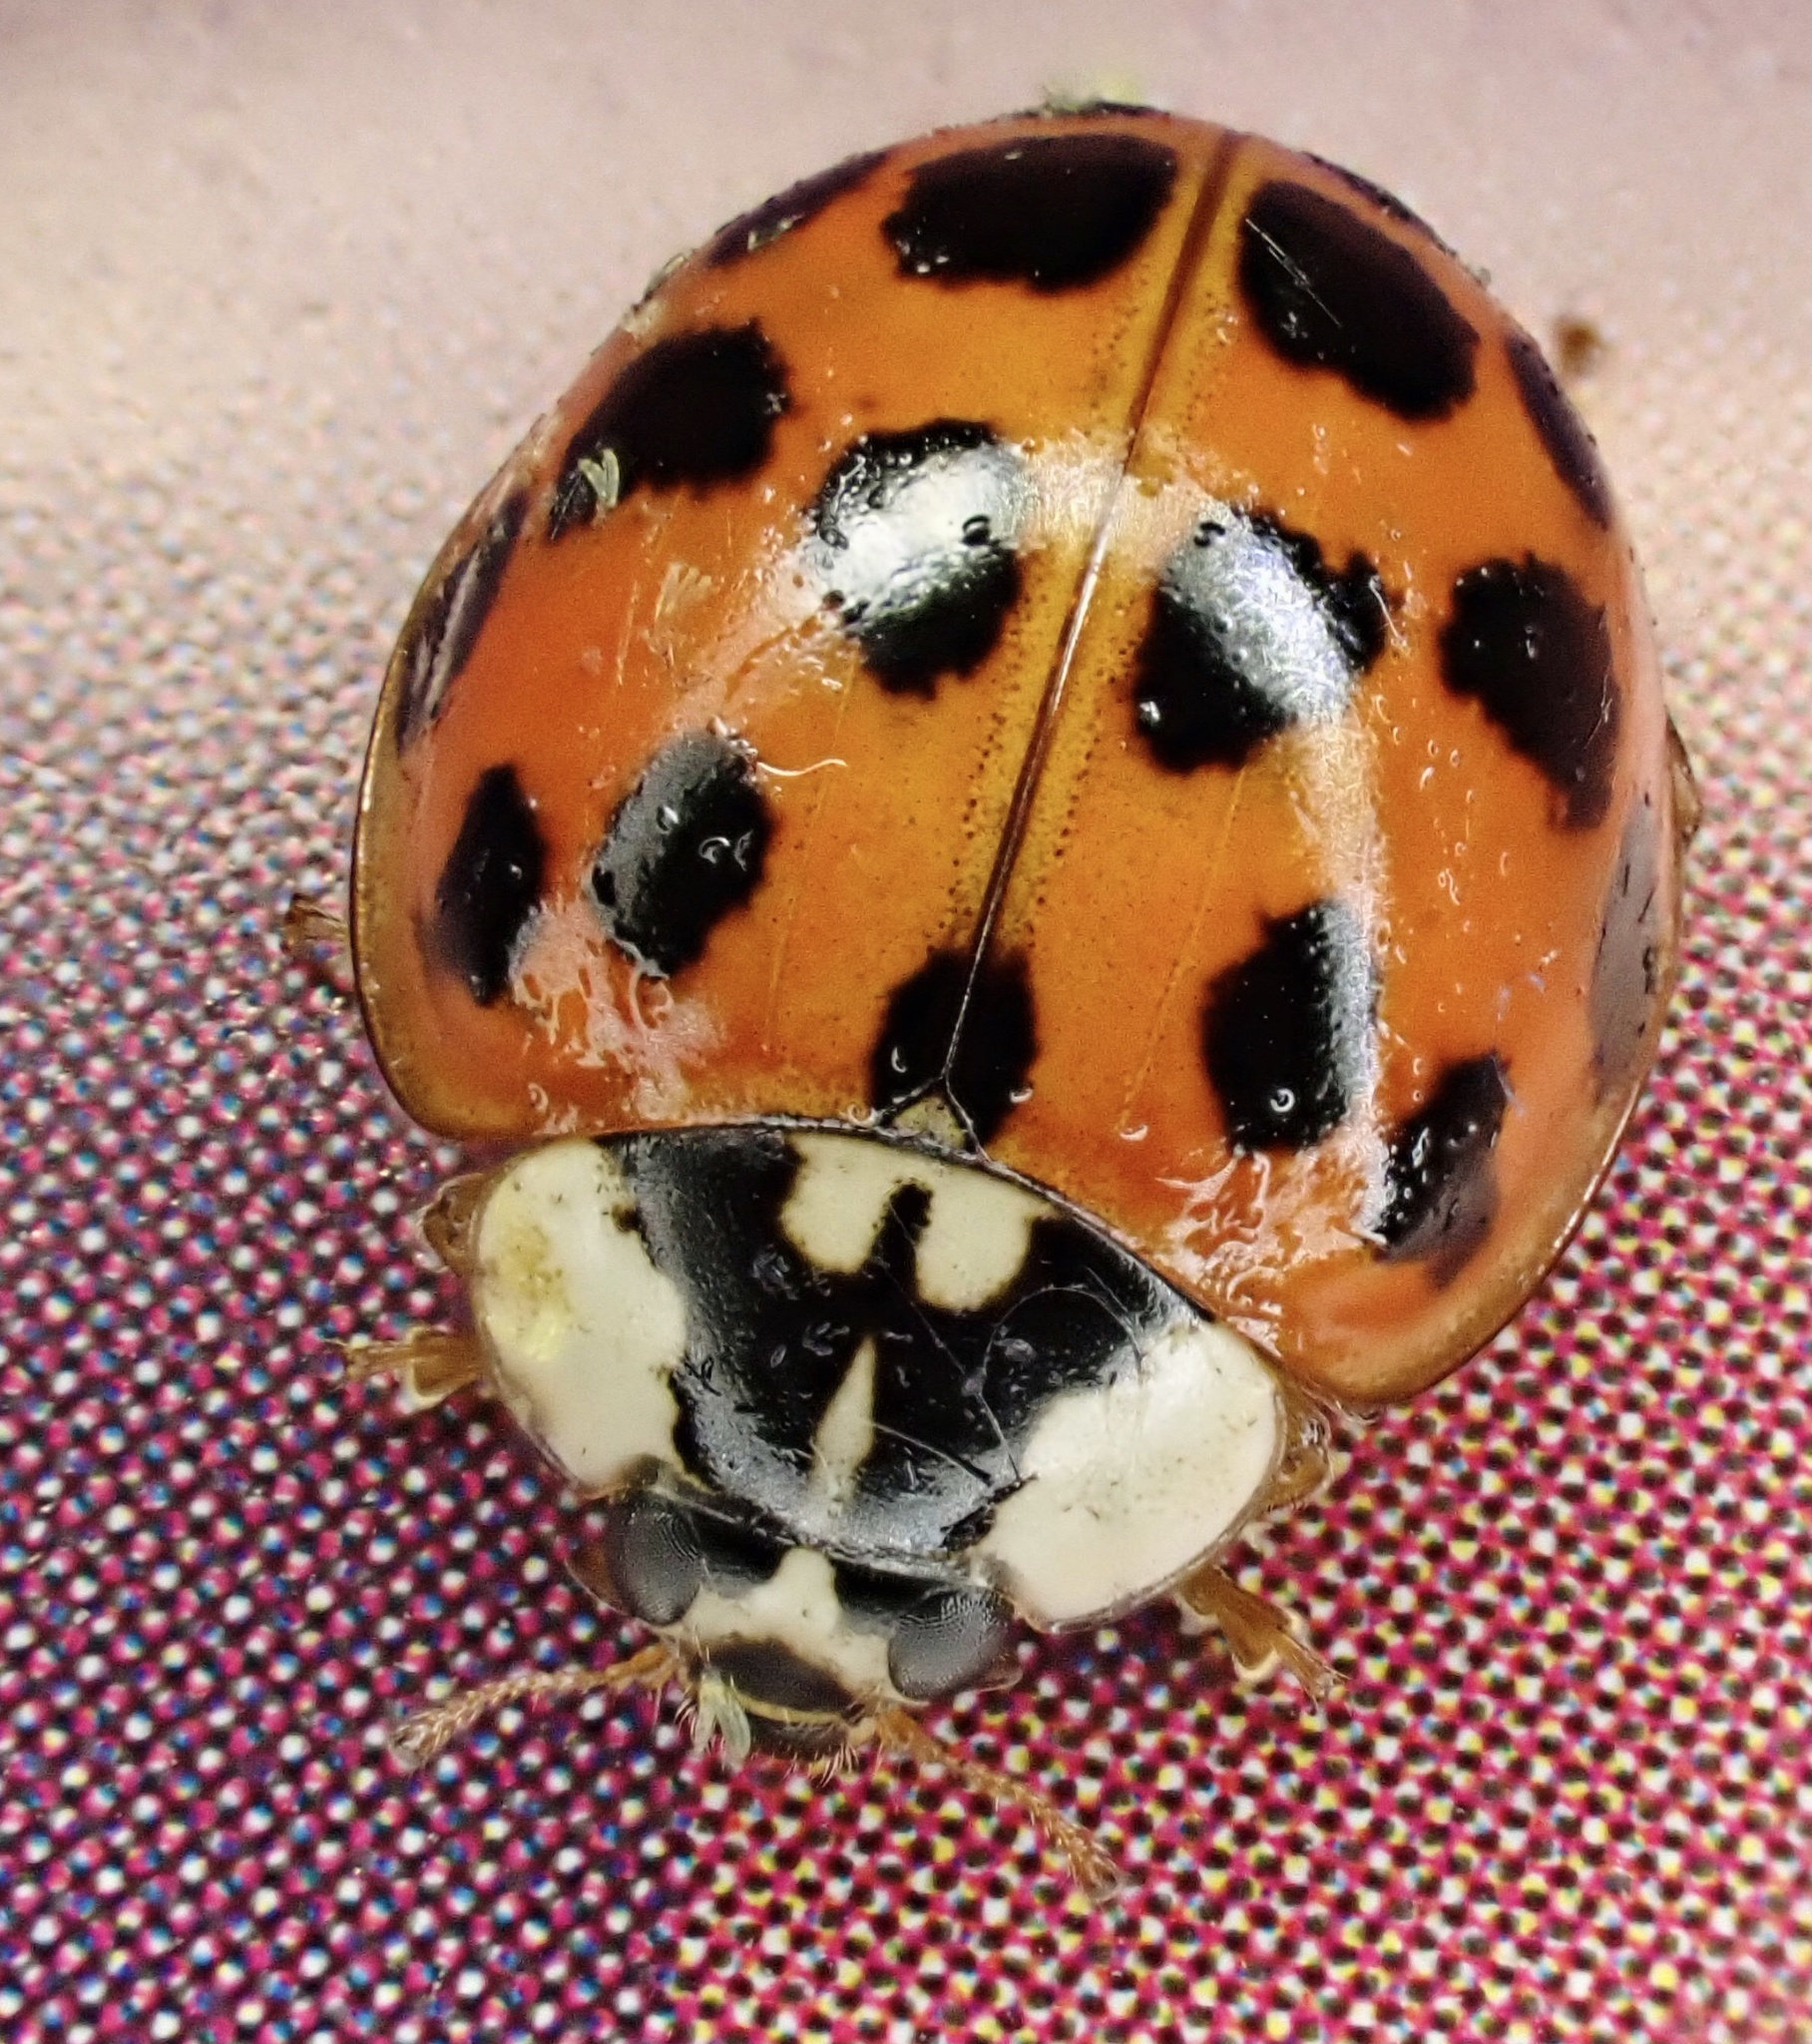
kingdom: Animalia
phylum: Arthropoda
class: Insecta
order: Coleoptera
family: Coccinellidae
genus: Harmonia
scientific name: Harmonia axyridis
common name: Harlequin ladybird
